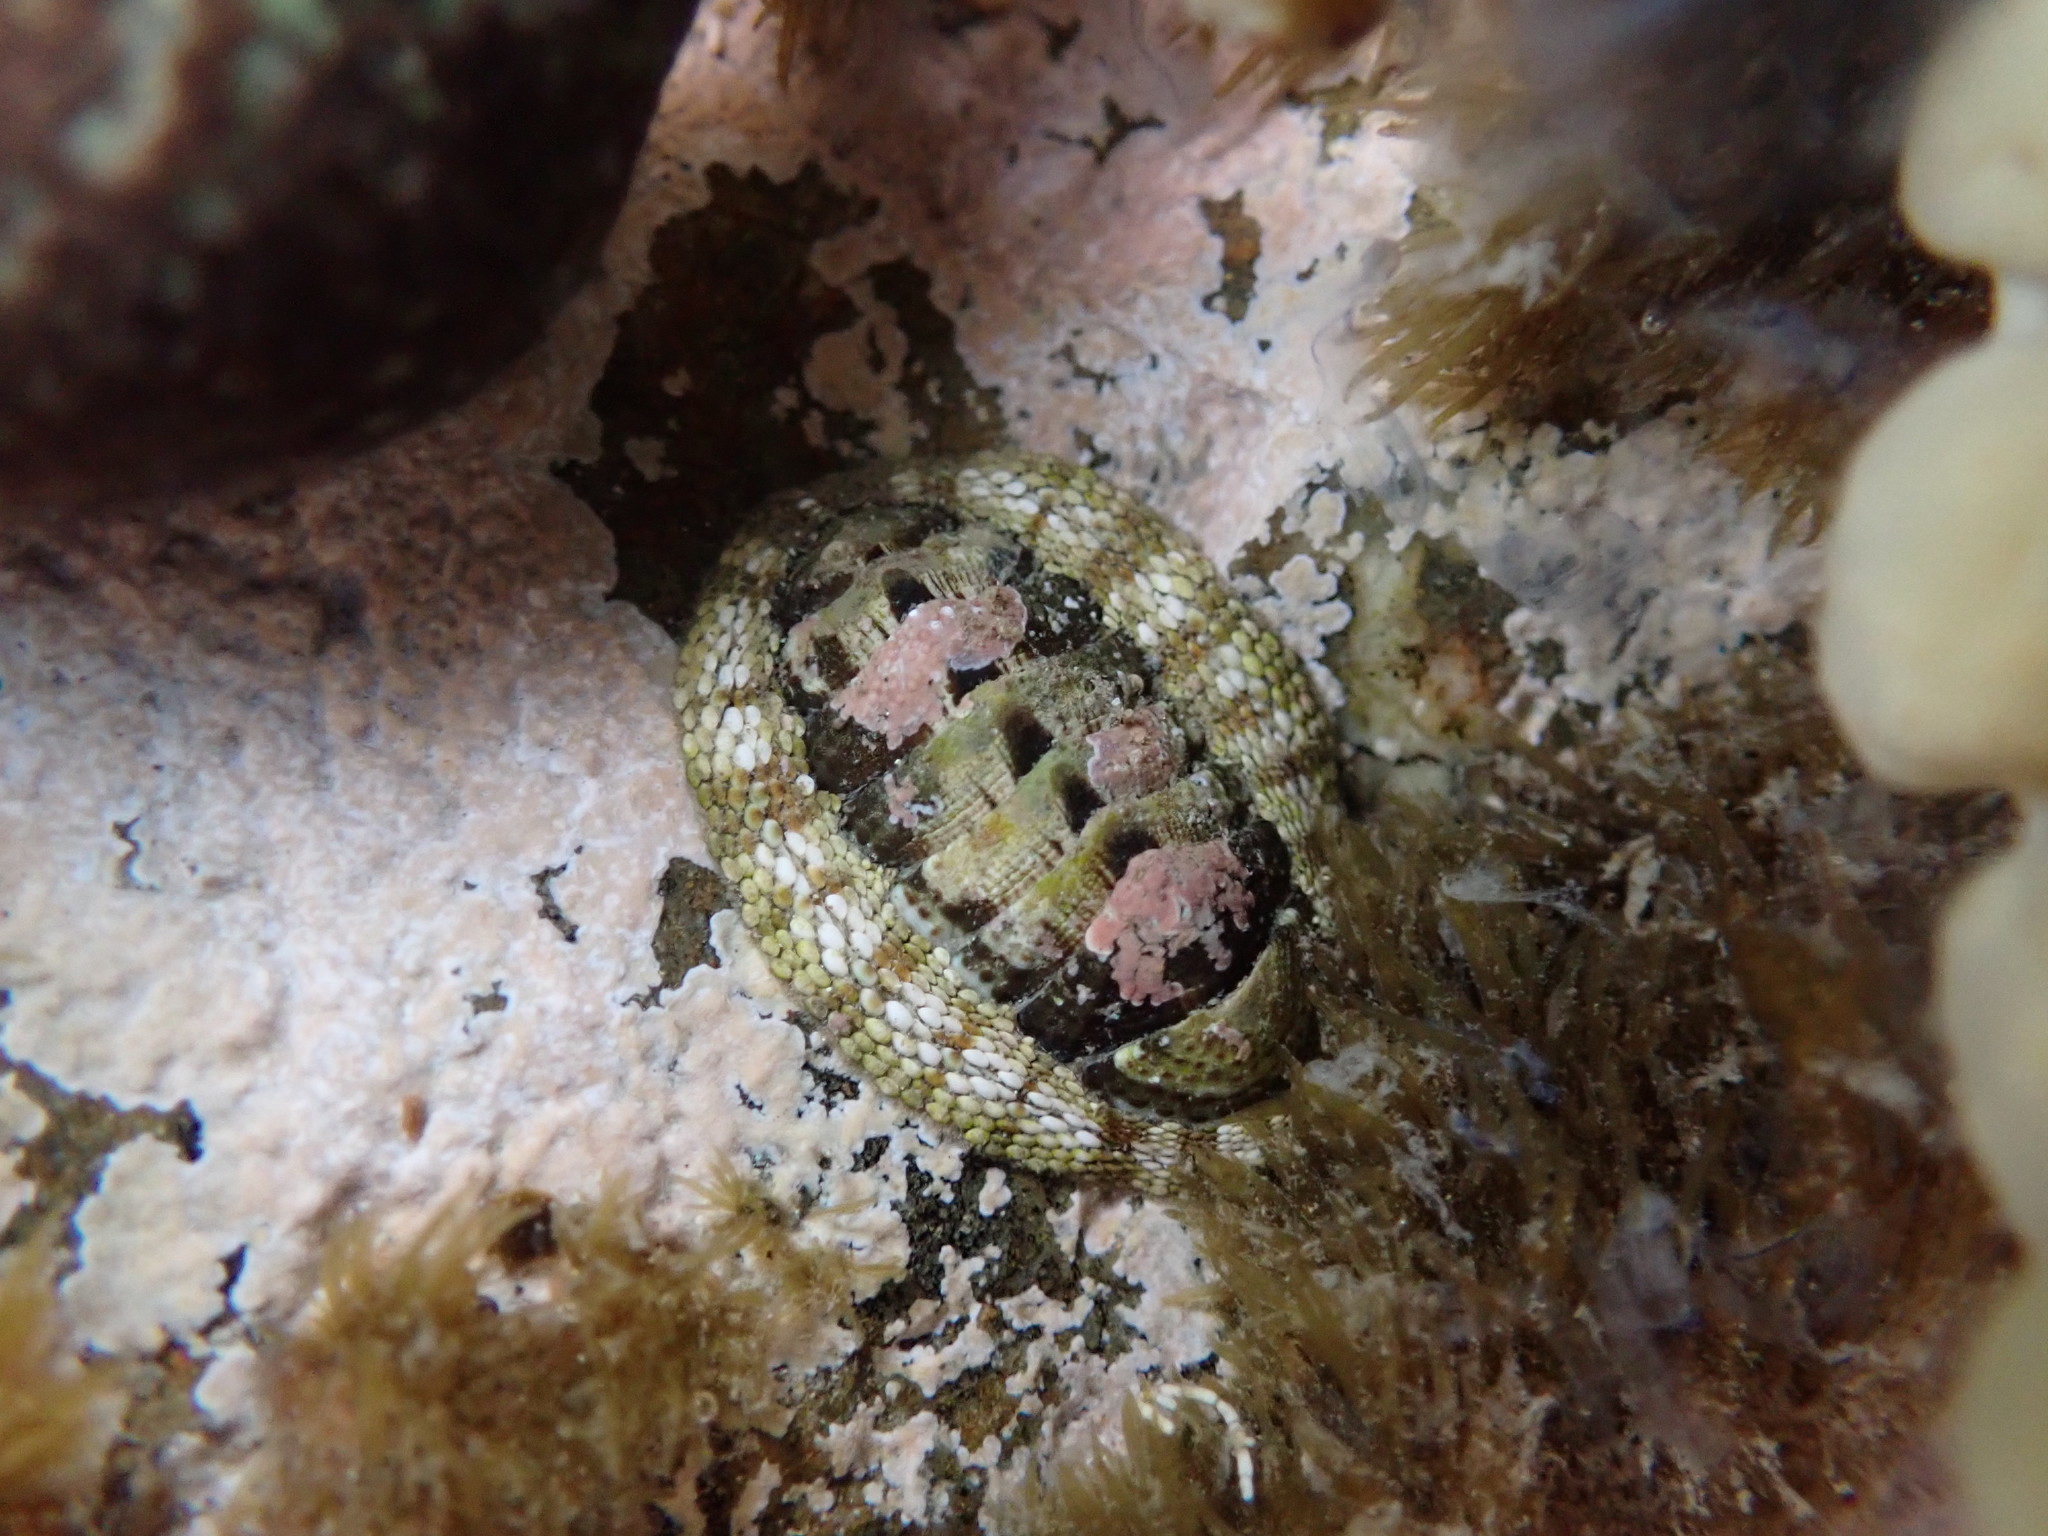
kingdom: Animalia
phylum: Mollusca
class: Polyplacophora
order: Chitonida
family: Chitonidae
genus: Sypharochiton
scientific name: Sypharochiton pelliserpentis
